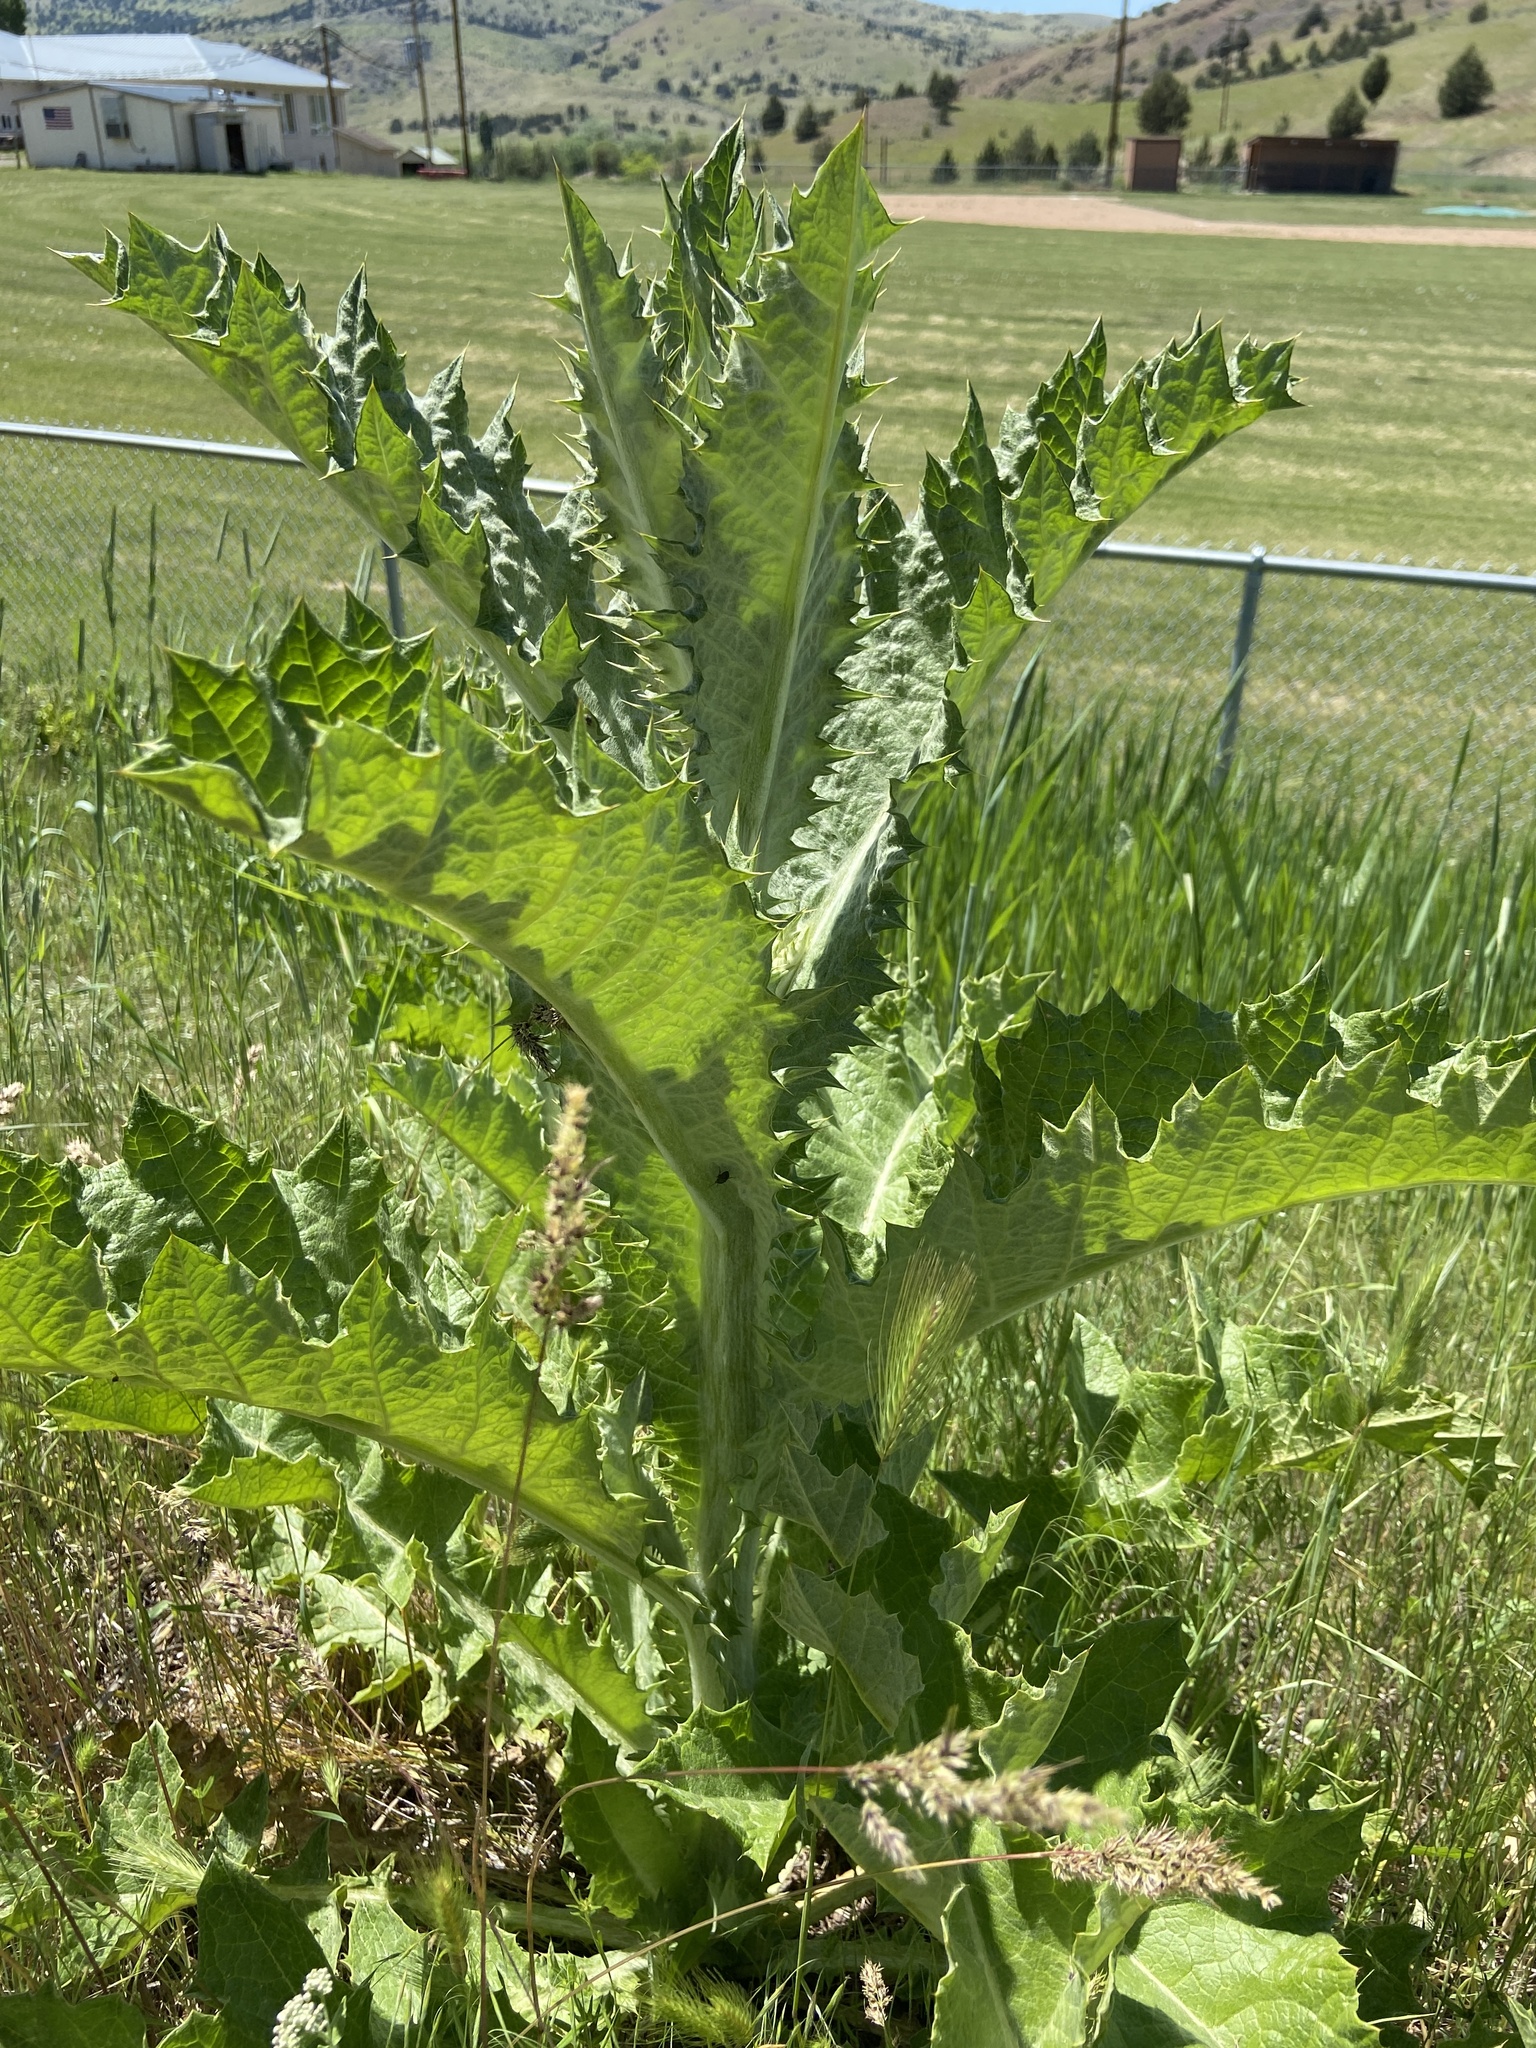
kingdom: Plantae
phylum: Tracheophyta
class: Magnoliopsida
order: Asterales
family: Asteraceae
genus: Onopordum
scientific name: Onopordum acanthium
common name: Scotch thistle
